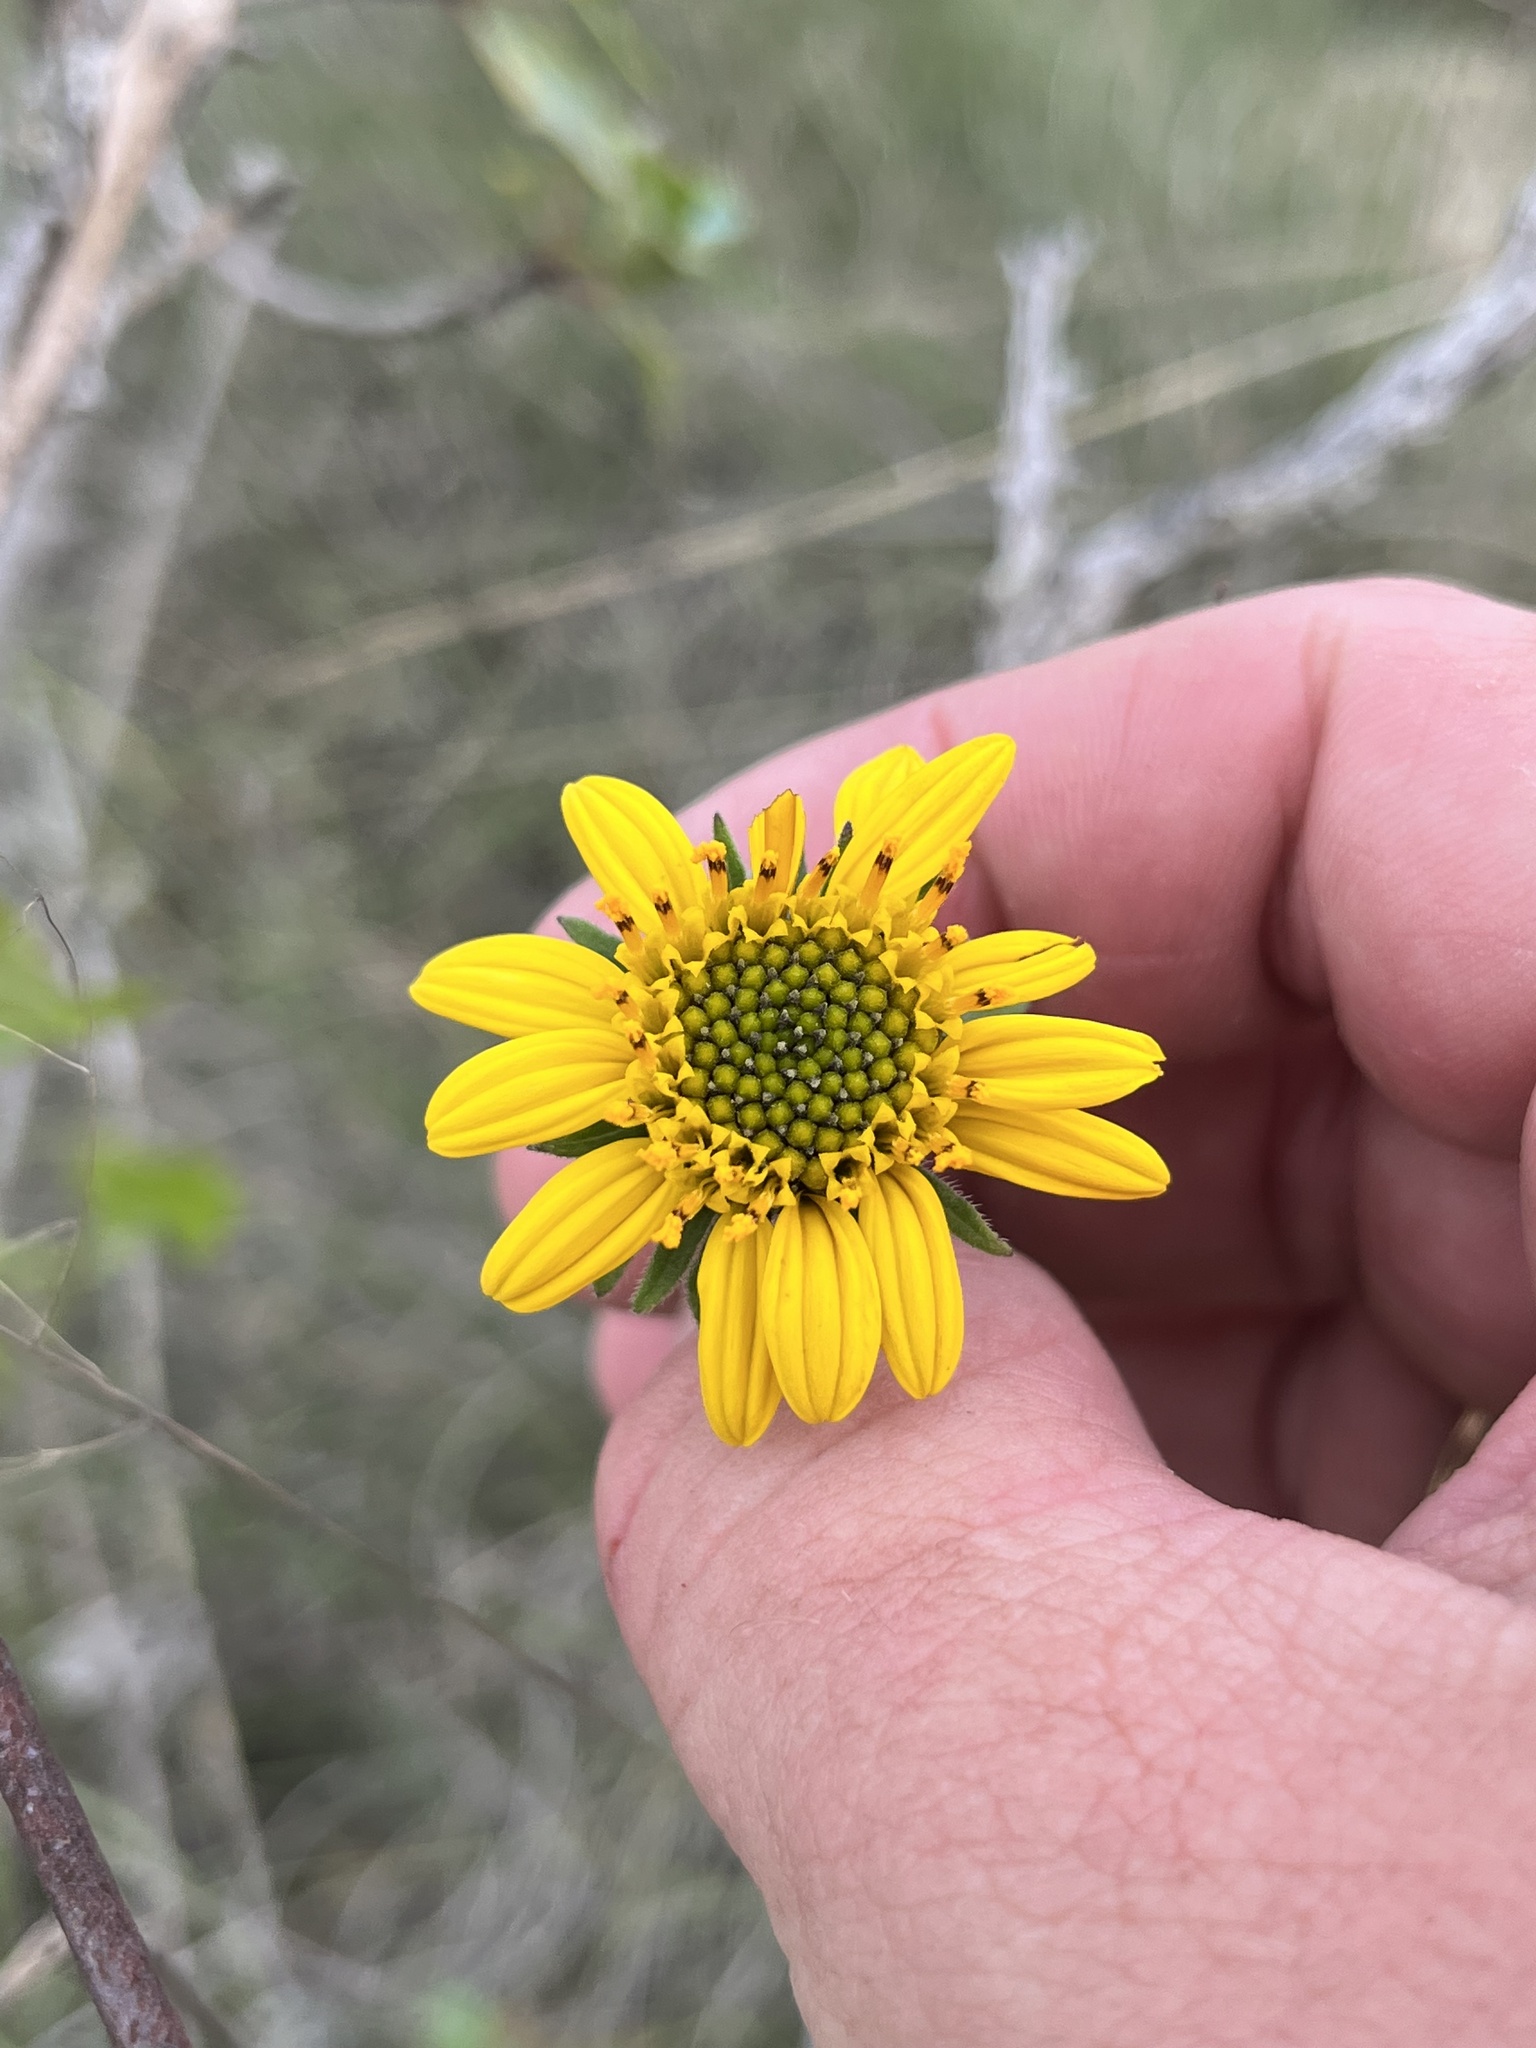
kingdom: Plantae
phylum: Tracheophyta
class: Magnoliopsida
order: Asterales
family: Asteraceae
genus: Simsia
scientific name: Simsia calva
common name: Awnless bush-sunflower
